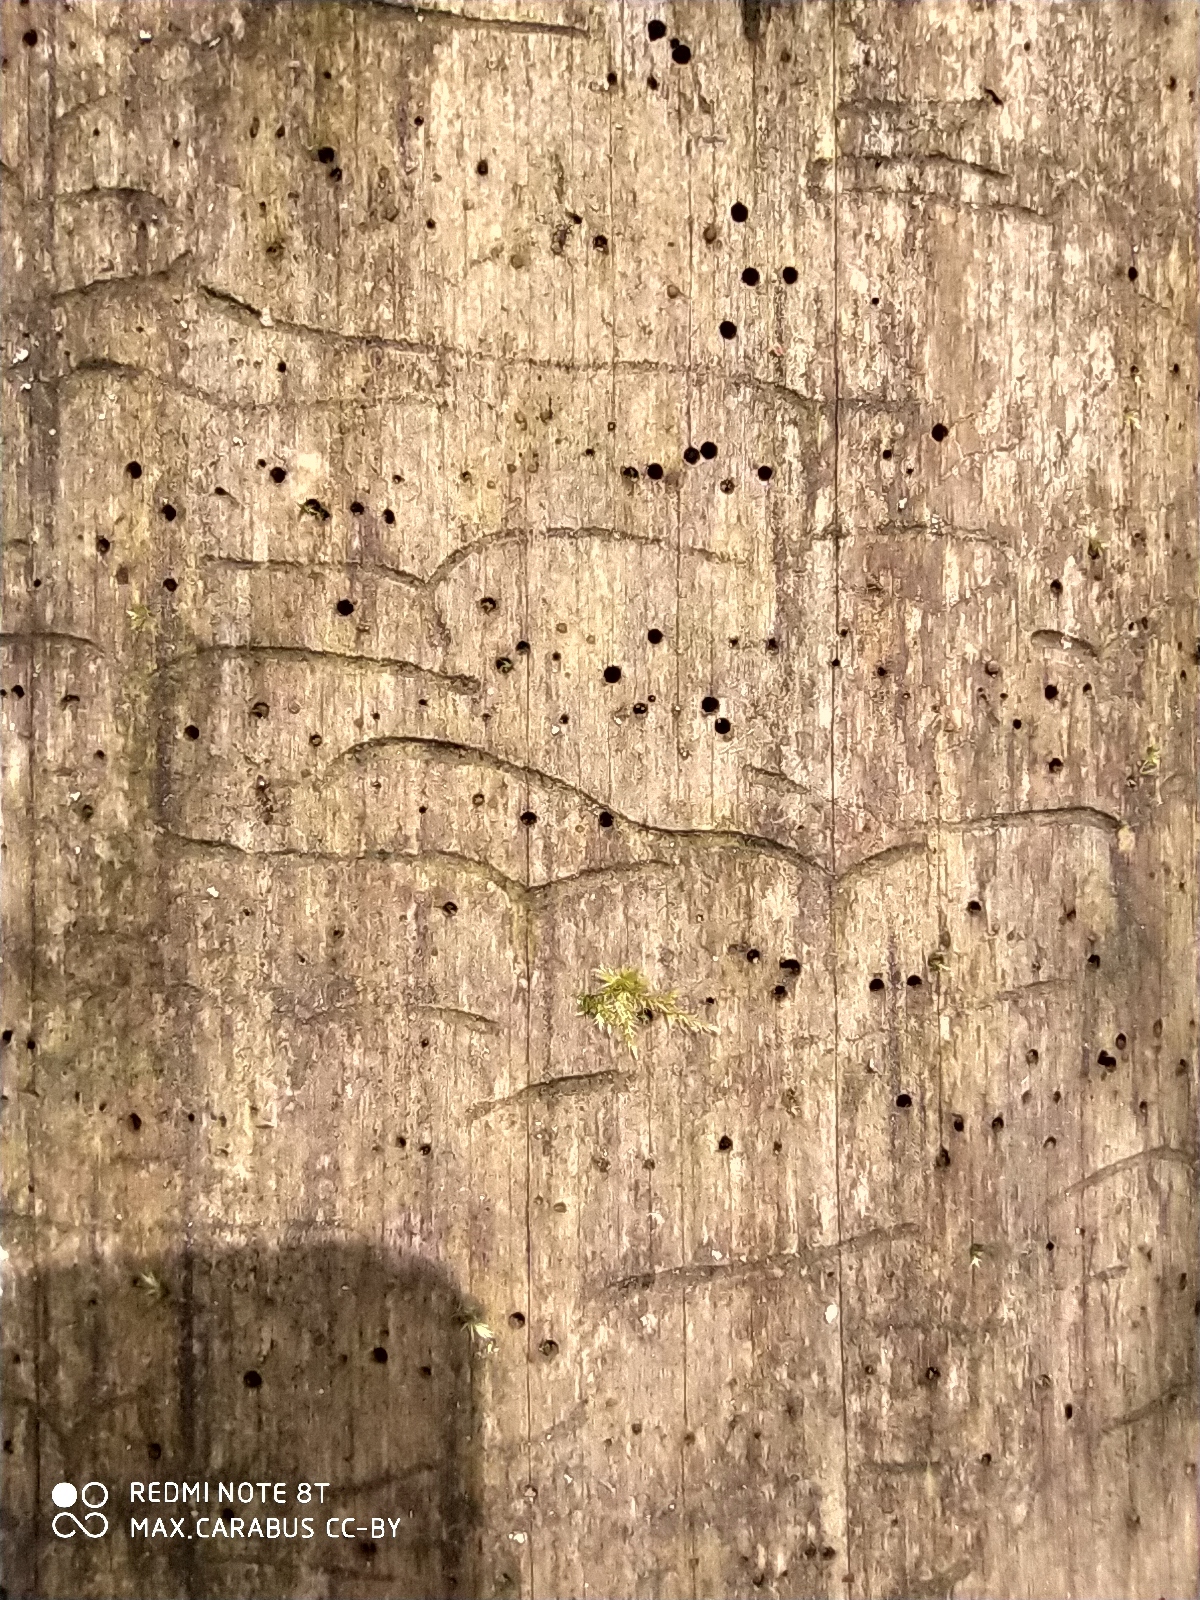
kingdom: Animalia
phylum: Arthropoda
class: Insecta
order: Coleoptera
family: Curculionidae
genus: Tomicus
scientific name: Tomicus minor
